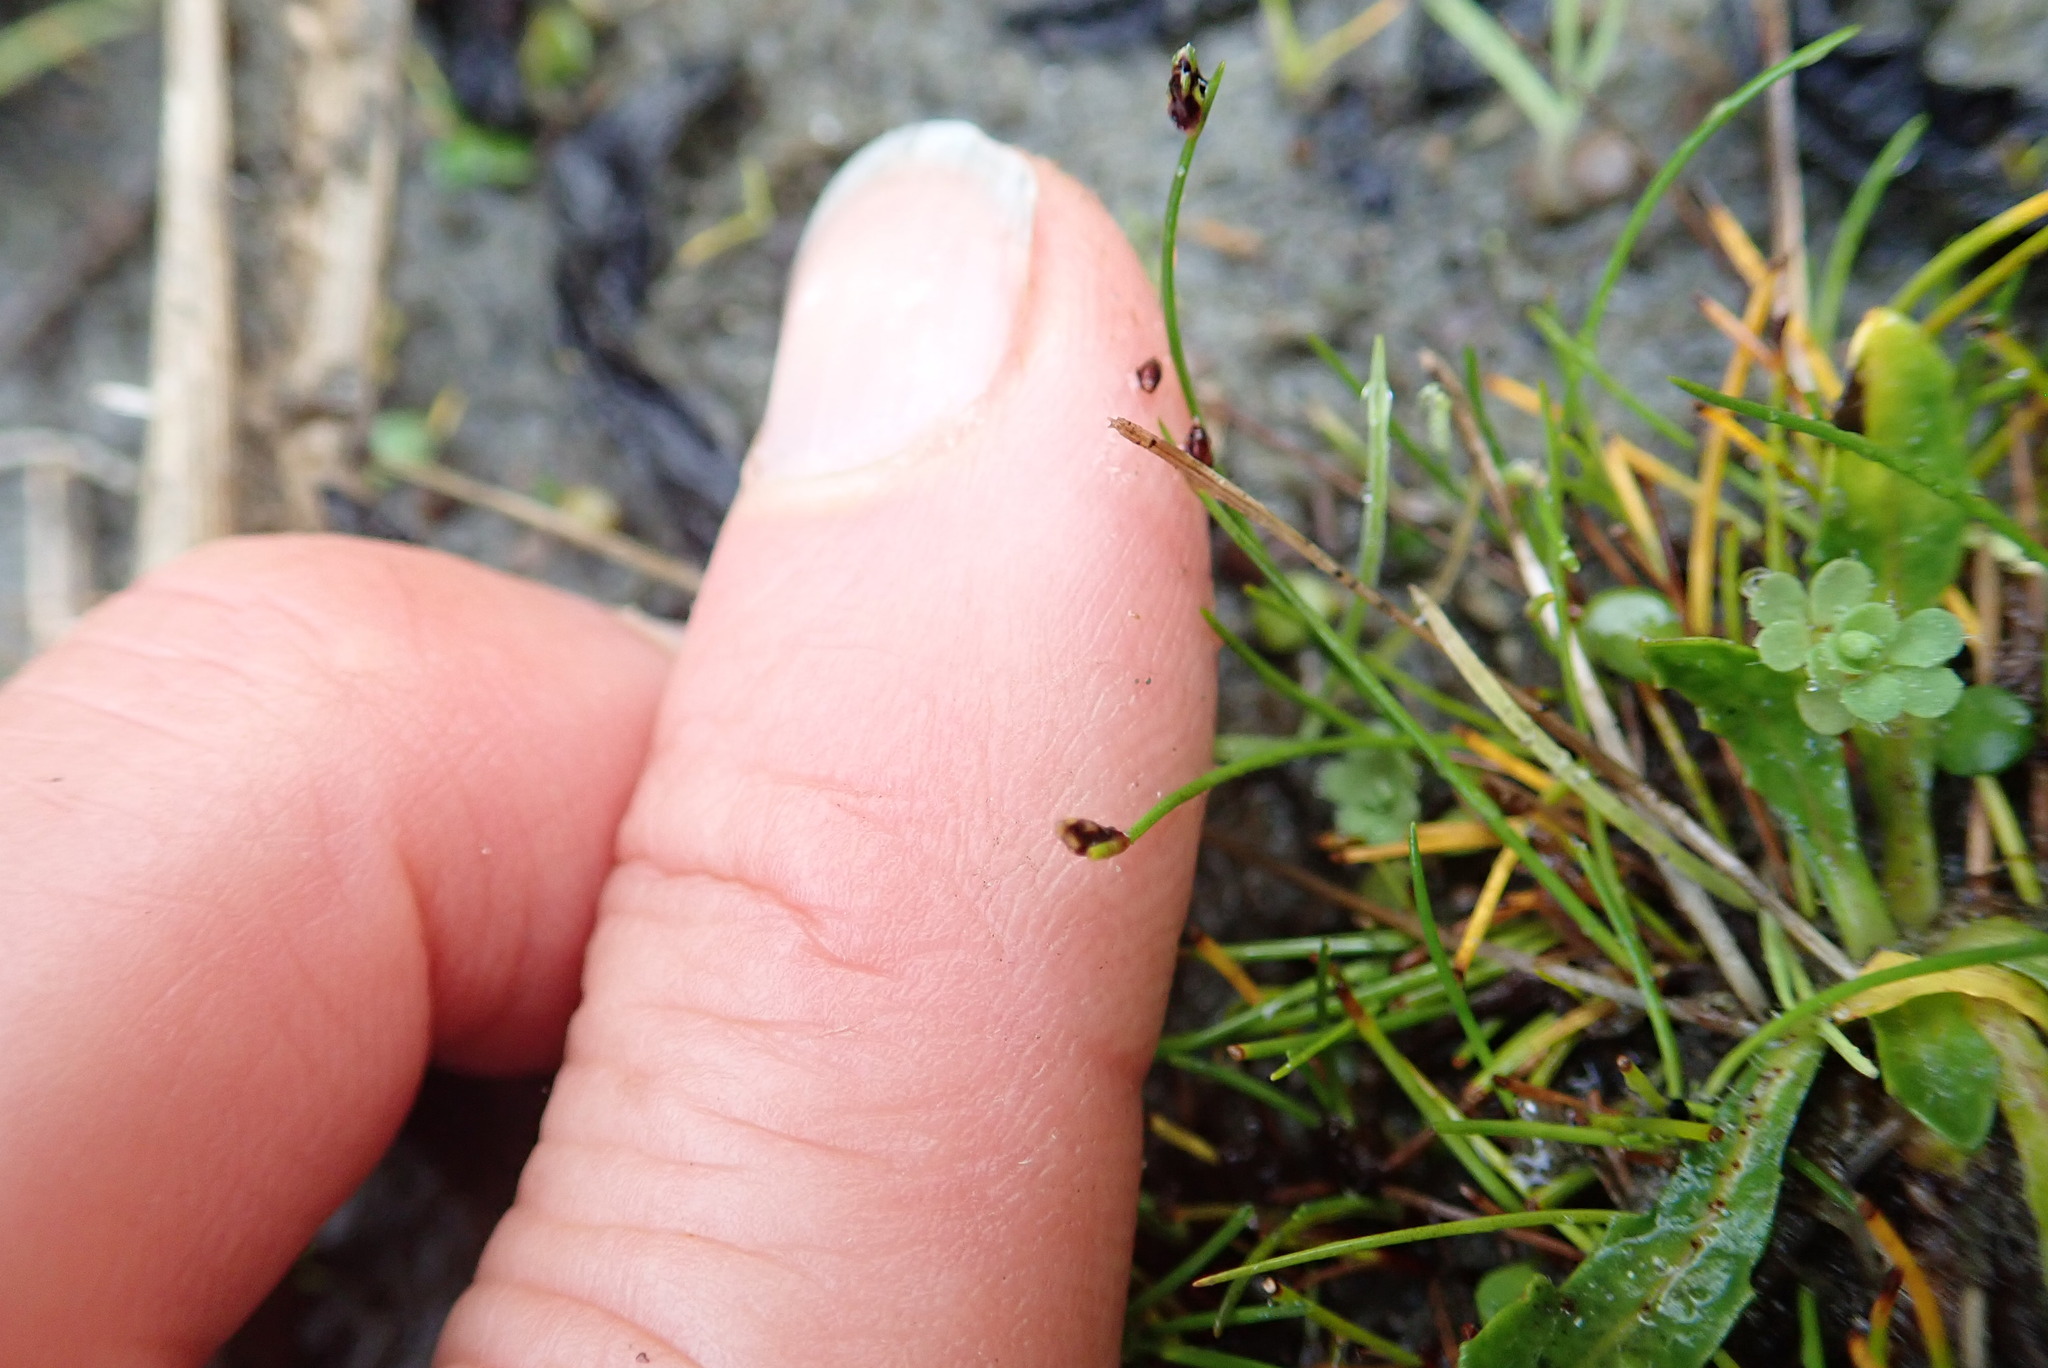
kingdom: Plantae
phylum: Tracheophyta
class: Liliopsida
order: Poales
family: Cyperaceae
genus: Isolepis
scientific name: Isolepis cernua
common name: Slender club-rush
